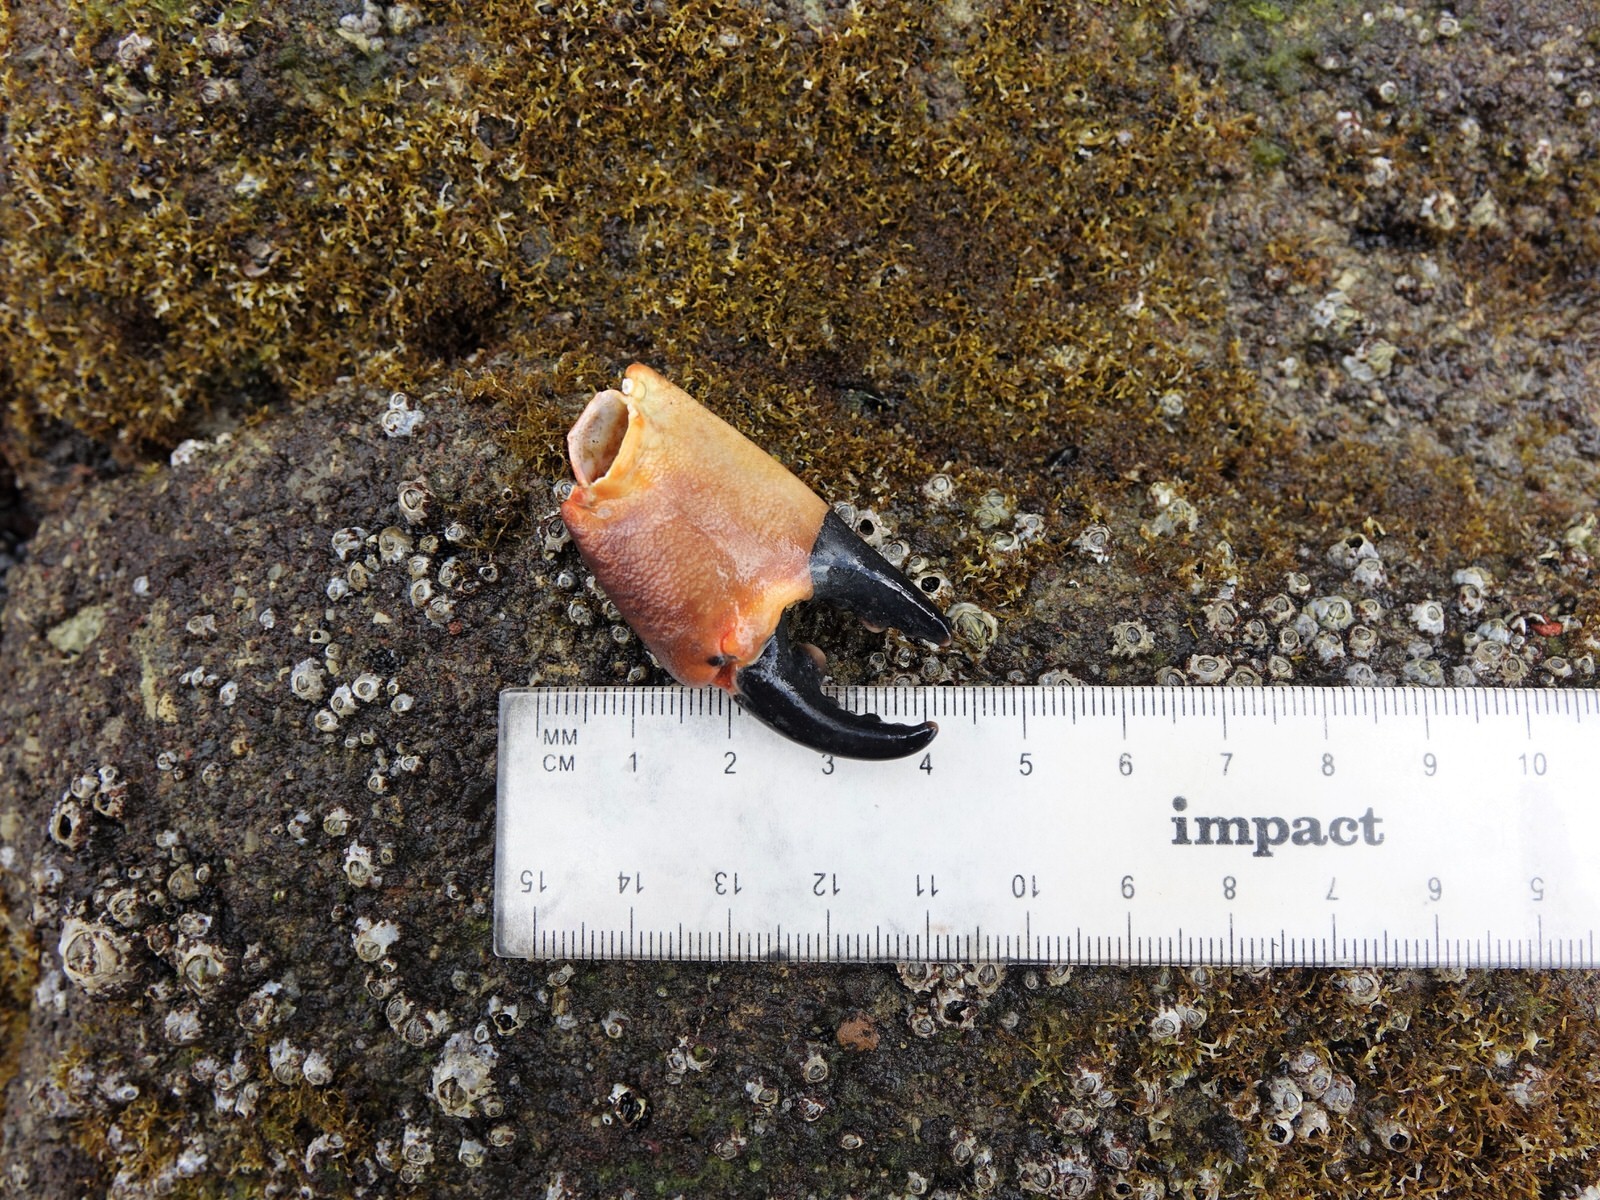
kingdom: Animalia
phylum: Arthropoda
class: Malacostraca
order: Decapoda
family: Oziidae
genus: Ozius
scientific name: Ozius deplanatus
